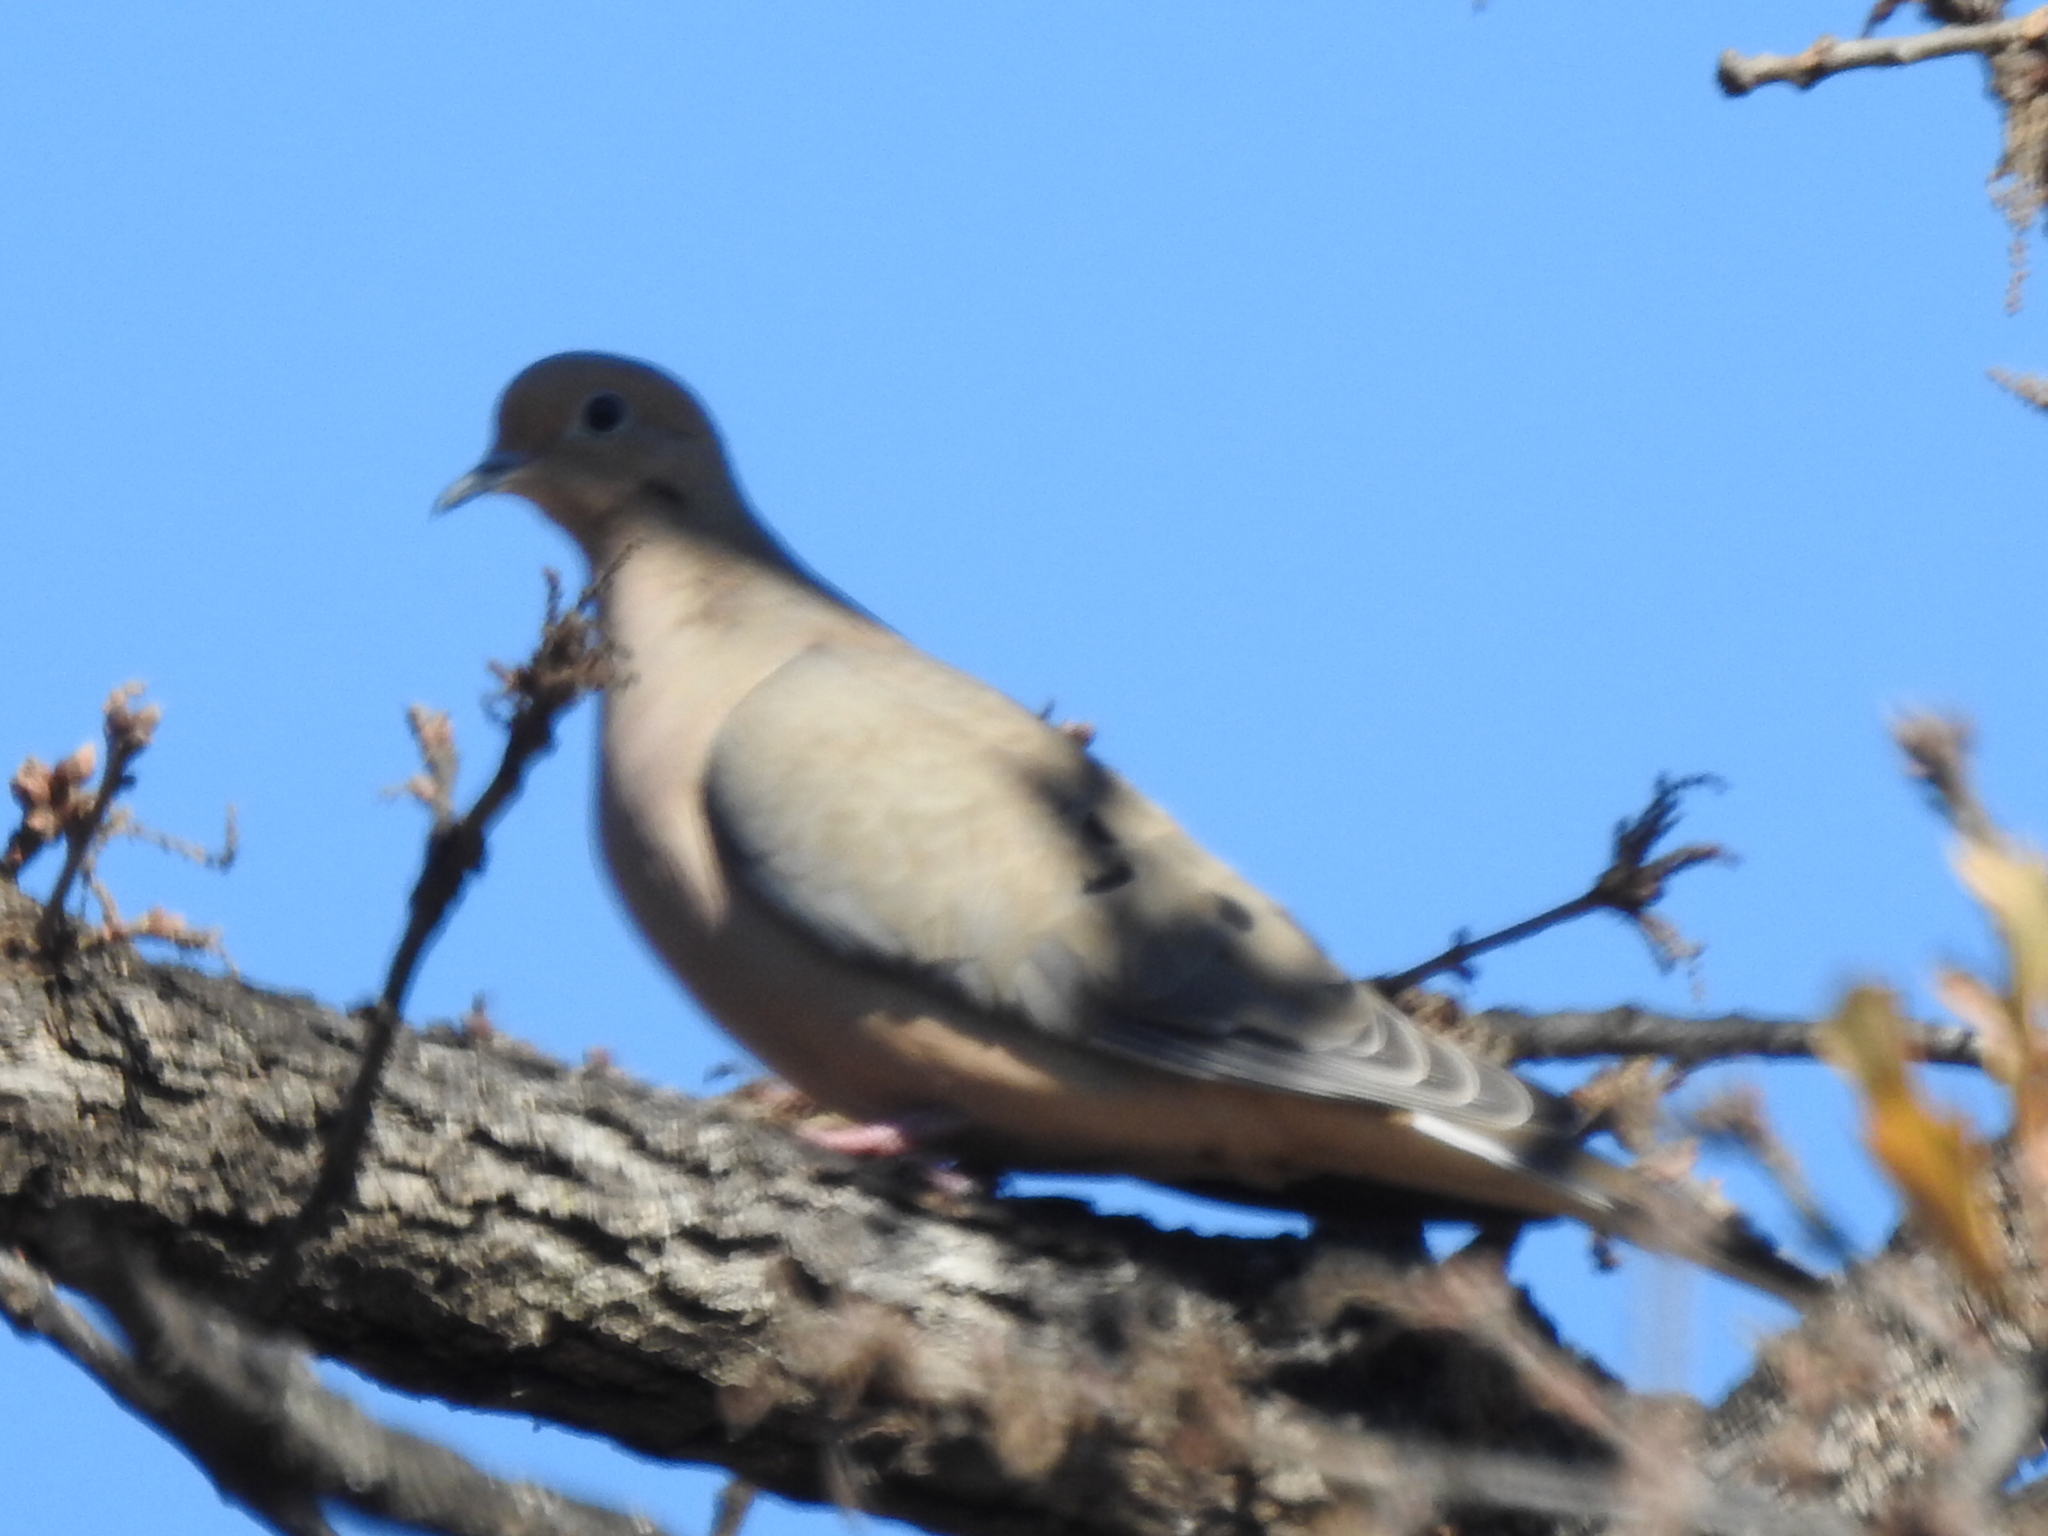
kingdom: Animalia
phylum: Chordata
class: Aves
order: Columbiformes
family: Columbidae
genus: Zenaida
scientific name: Zenaida macroura
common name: Mourning dove
